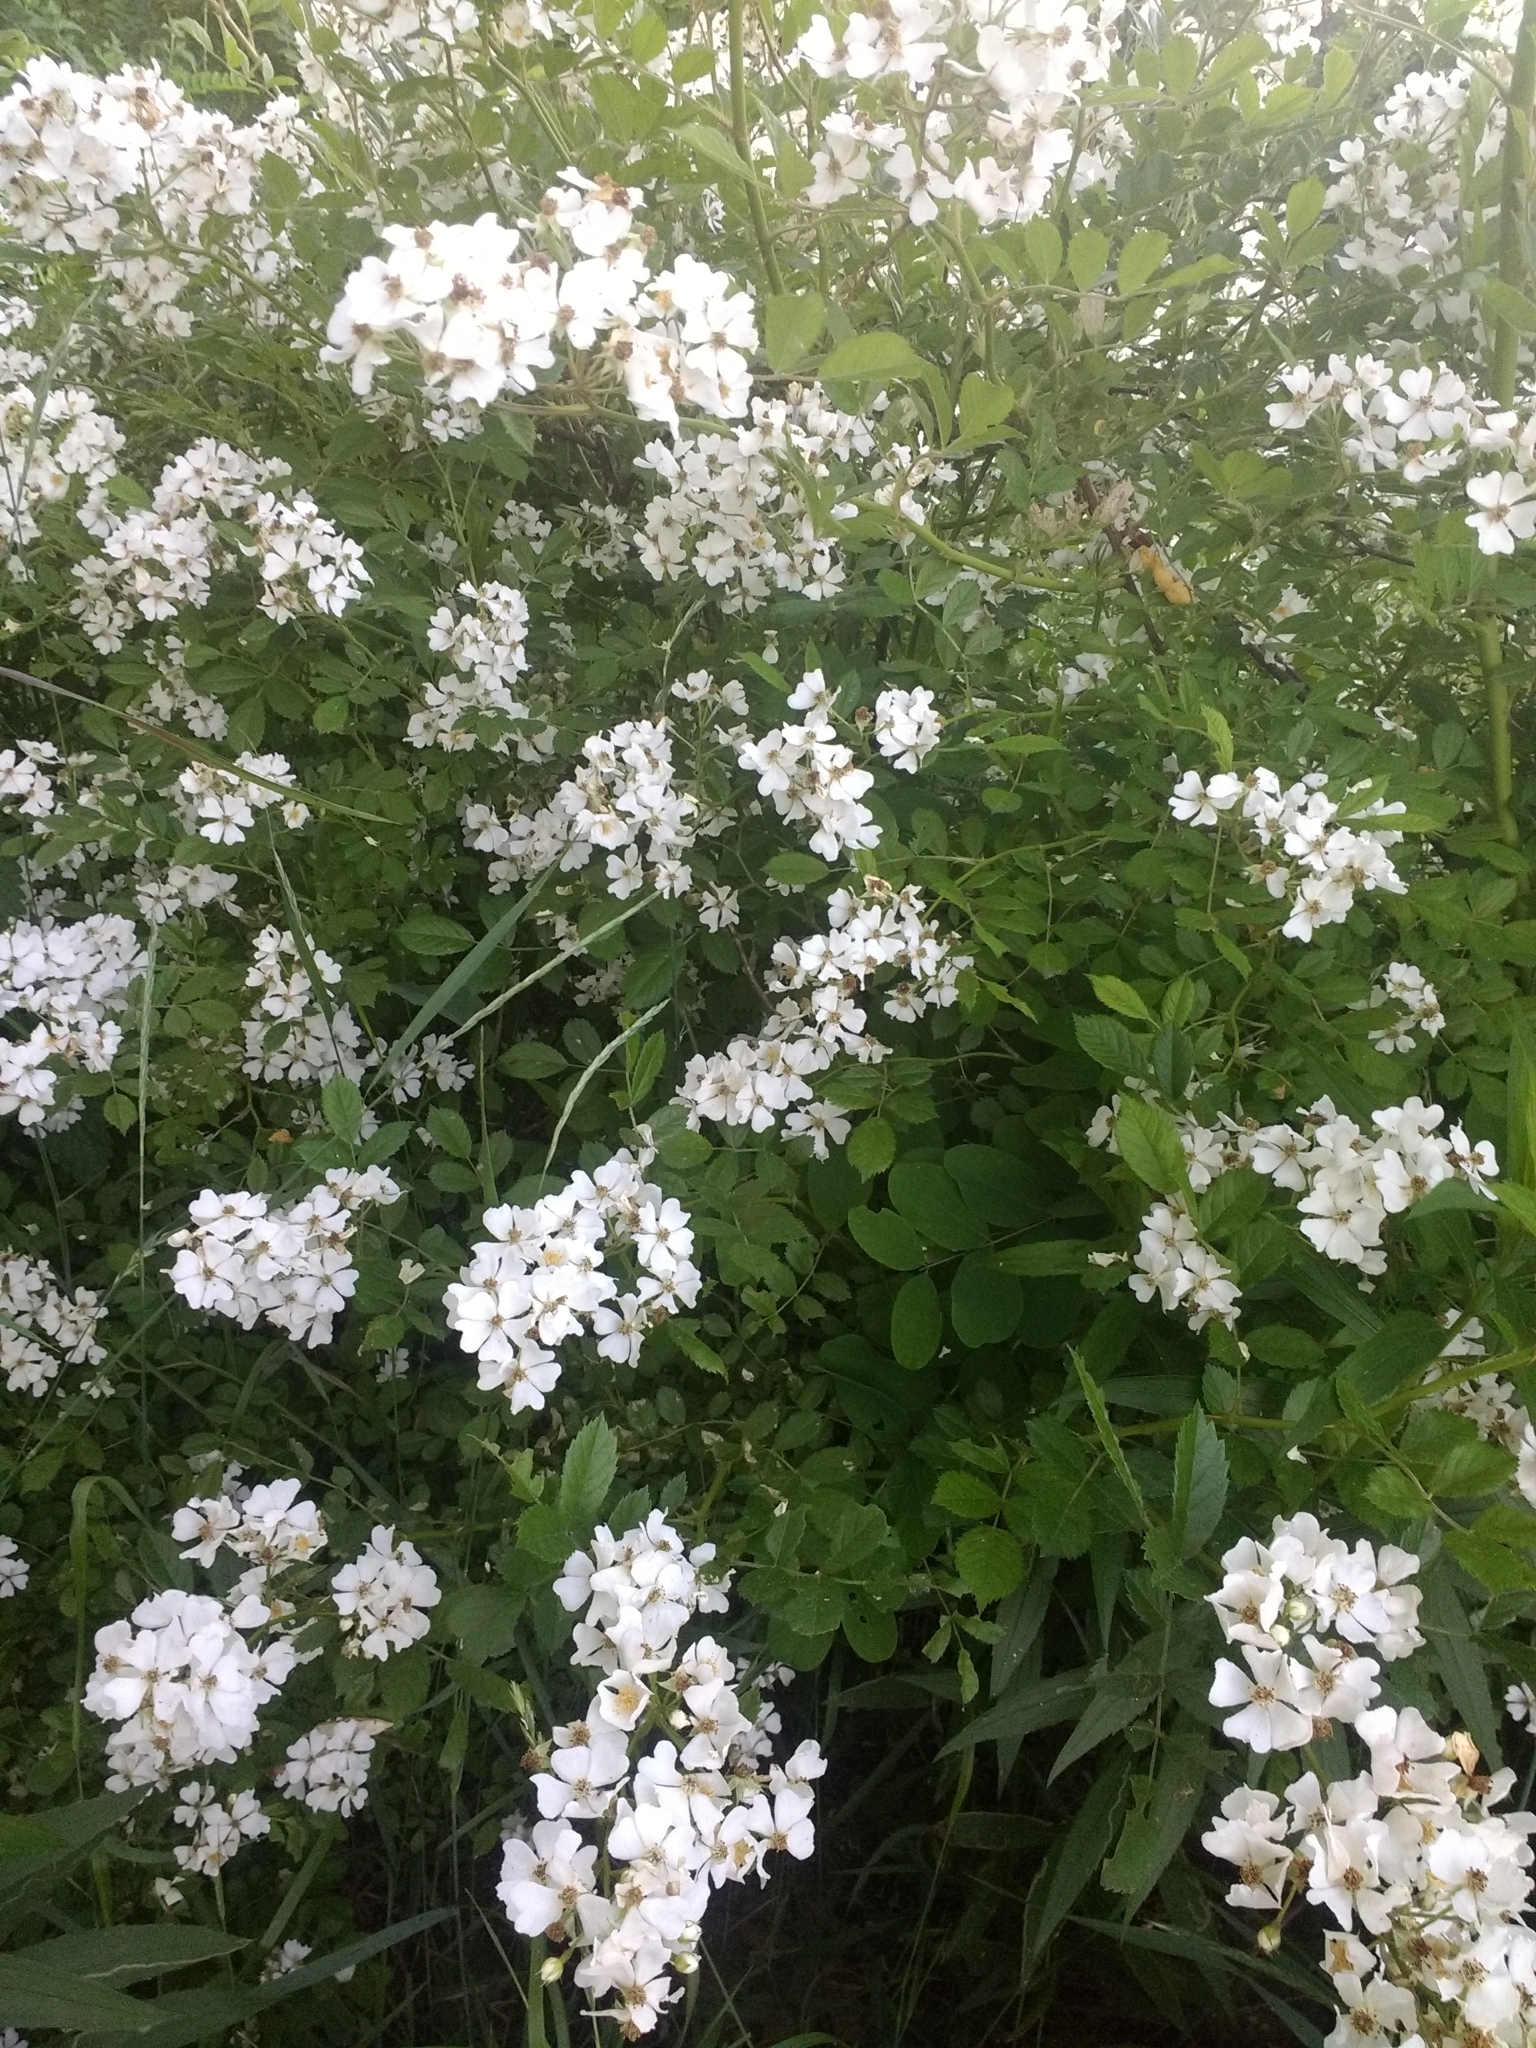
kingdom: Plantae
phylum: Tracheophyta
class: Magnoliopsida
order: Rosales
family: Rosaceae
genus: Rosa
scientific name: Rosa multiflora
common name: Multiflora rose
